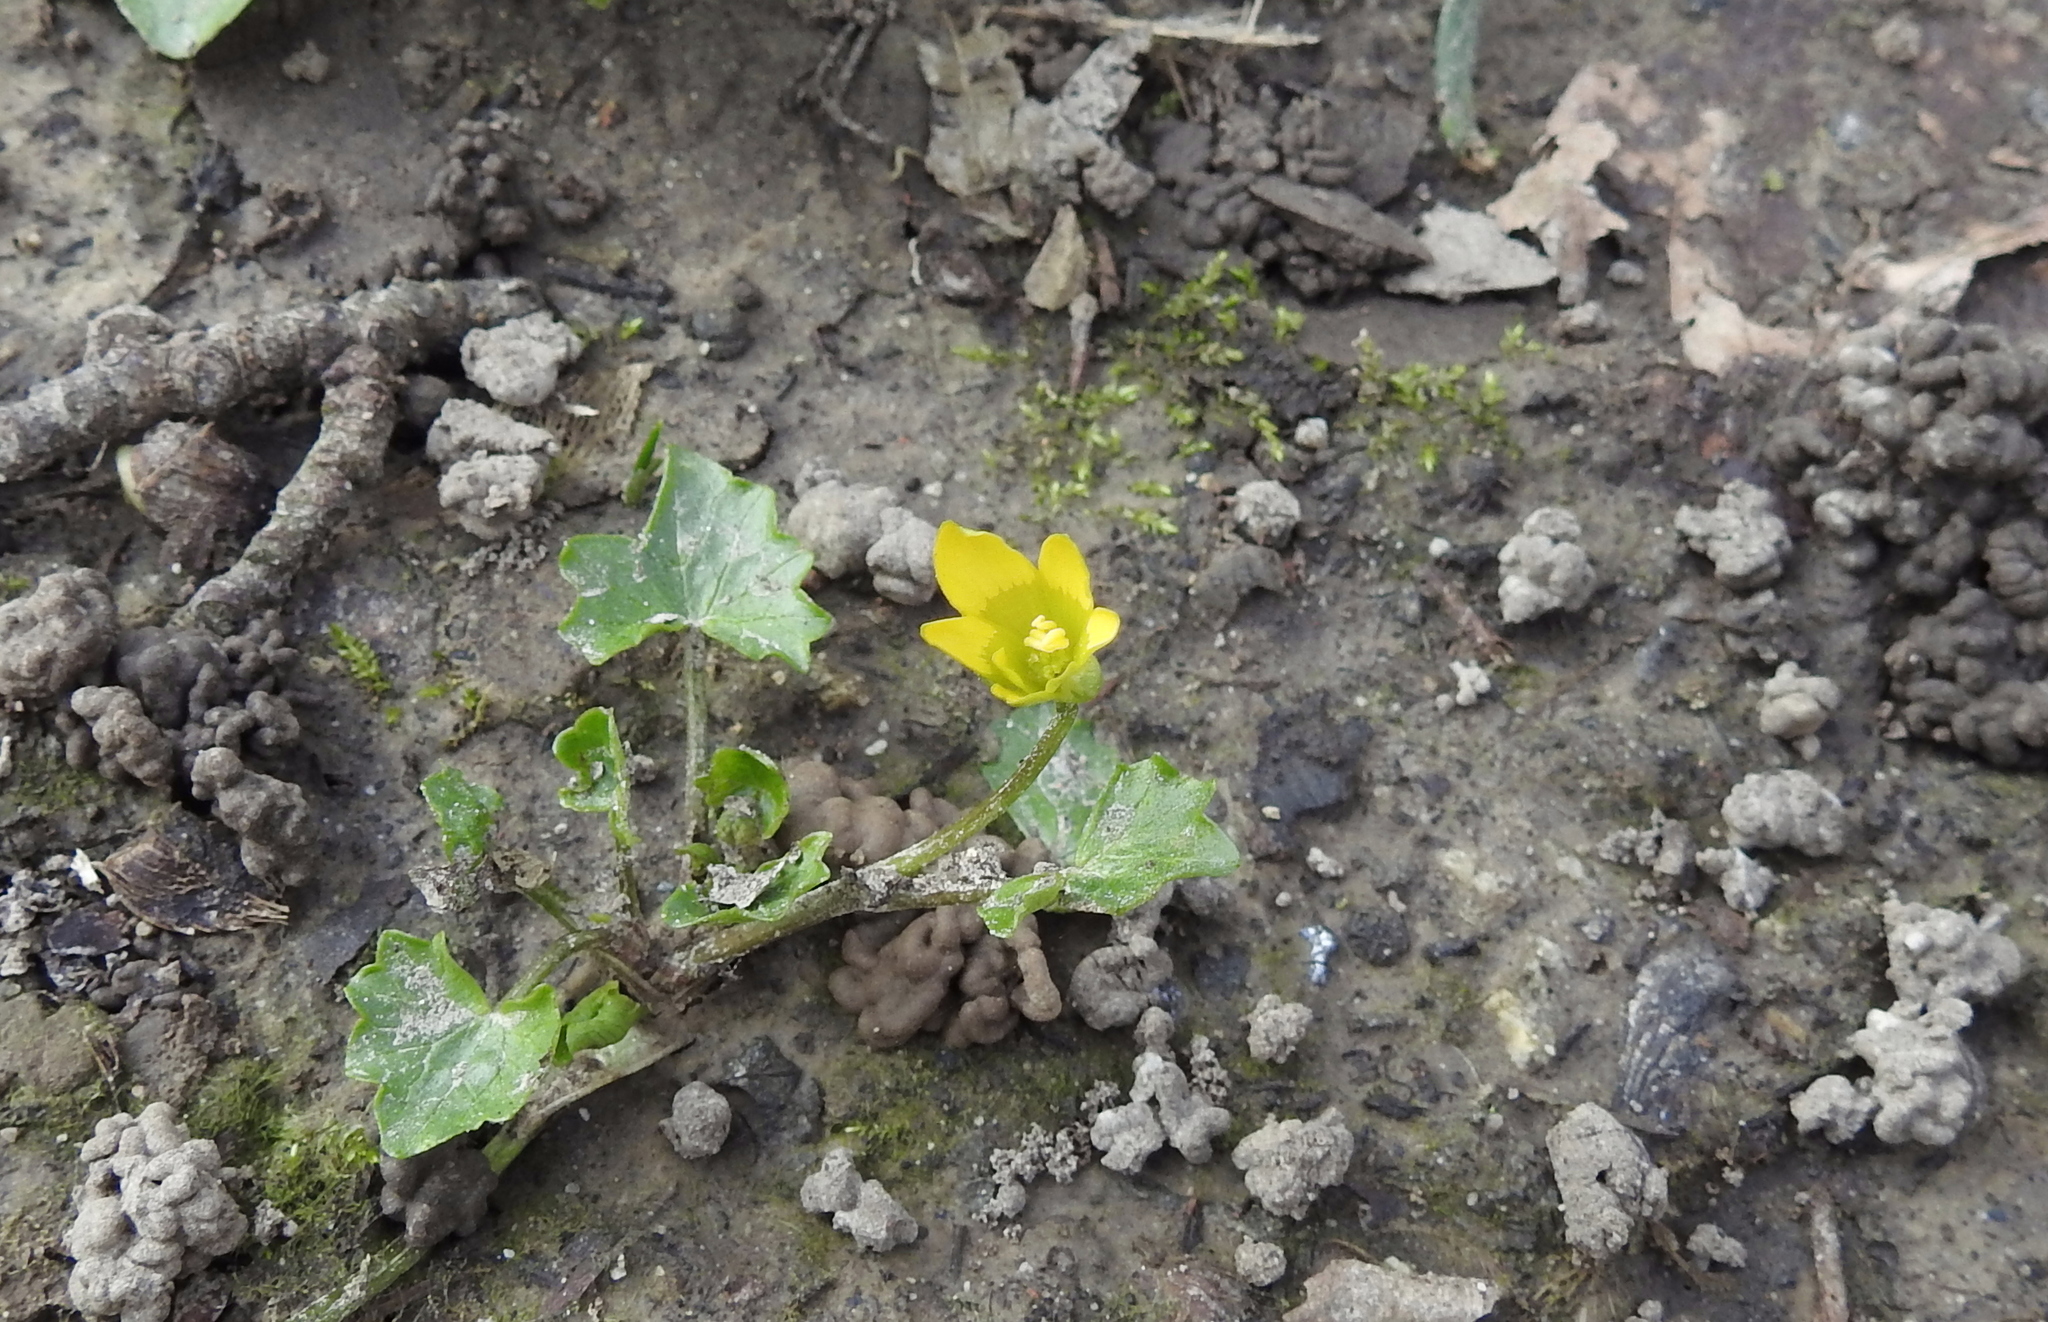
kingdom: Plantae
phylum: Tracheophyta
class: Magnoliopsida
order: Ranunculales
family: Ranunculaceae
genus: Ficaria
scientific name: Ficaria verna
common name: Lesser celandine
